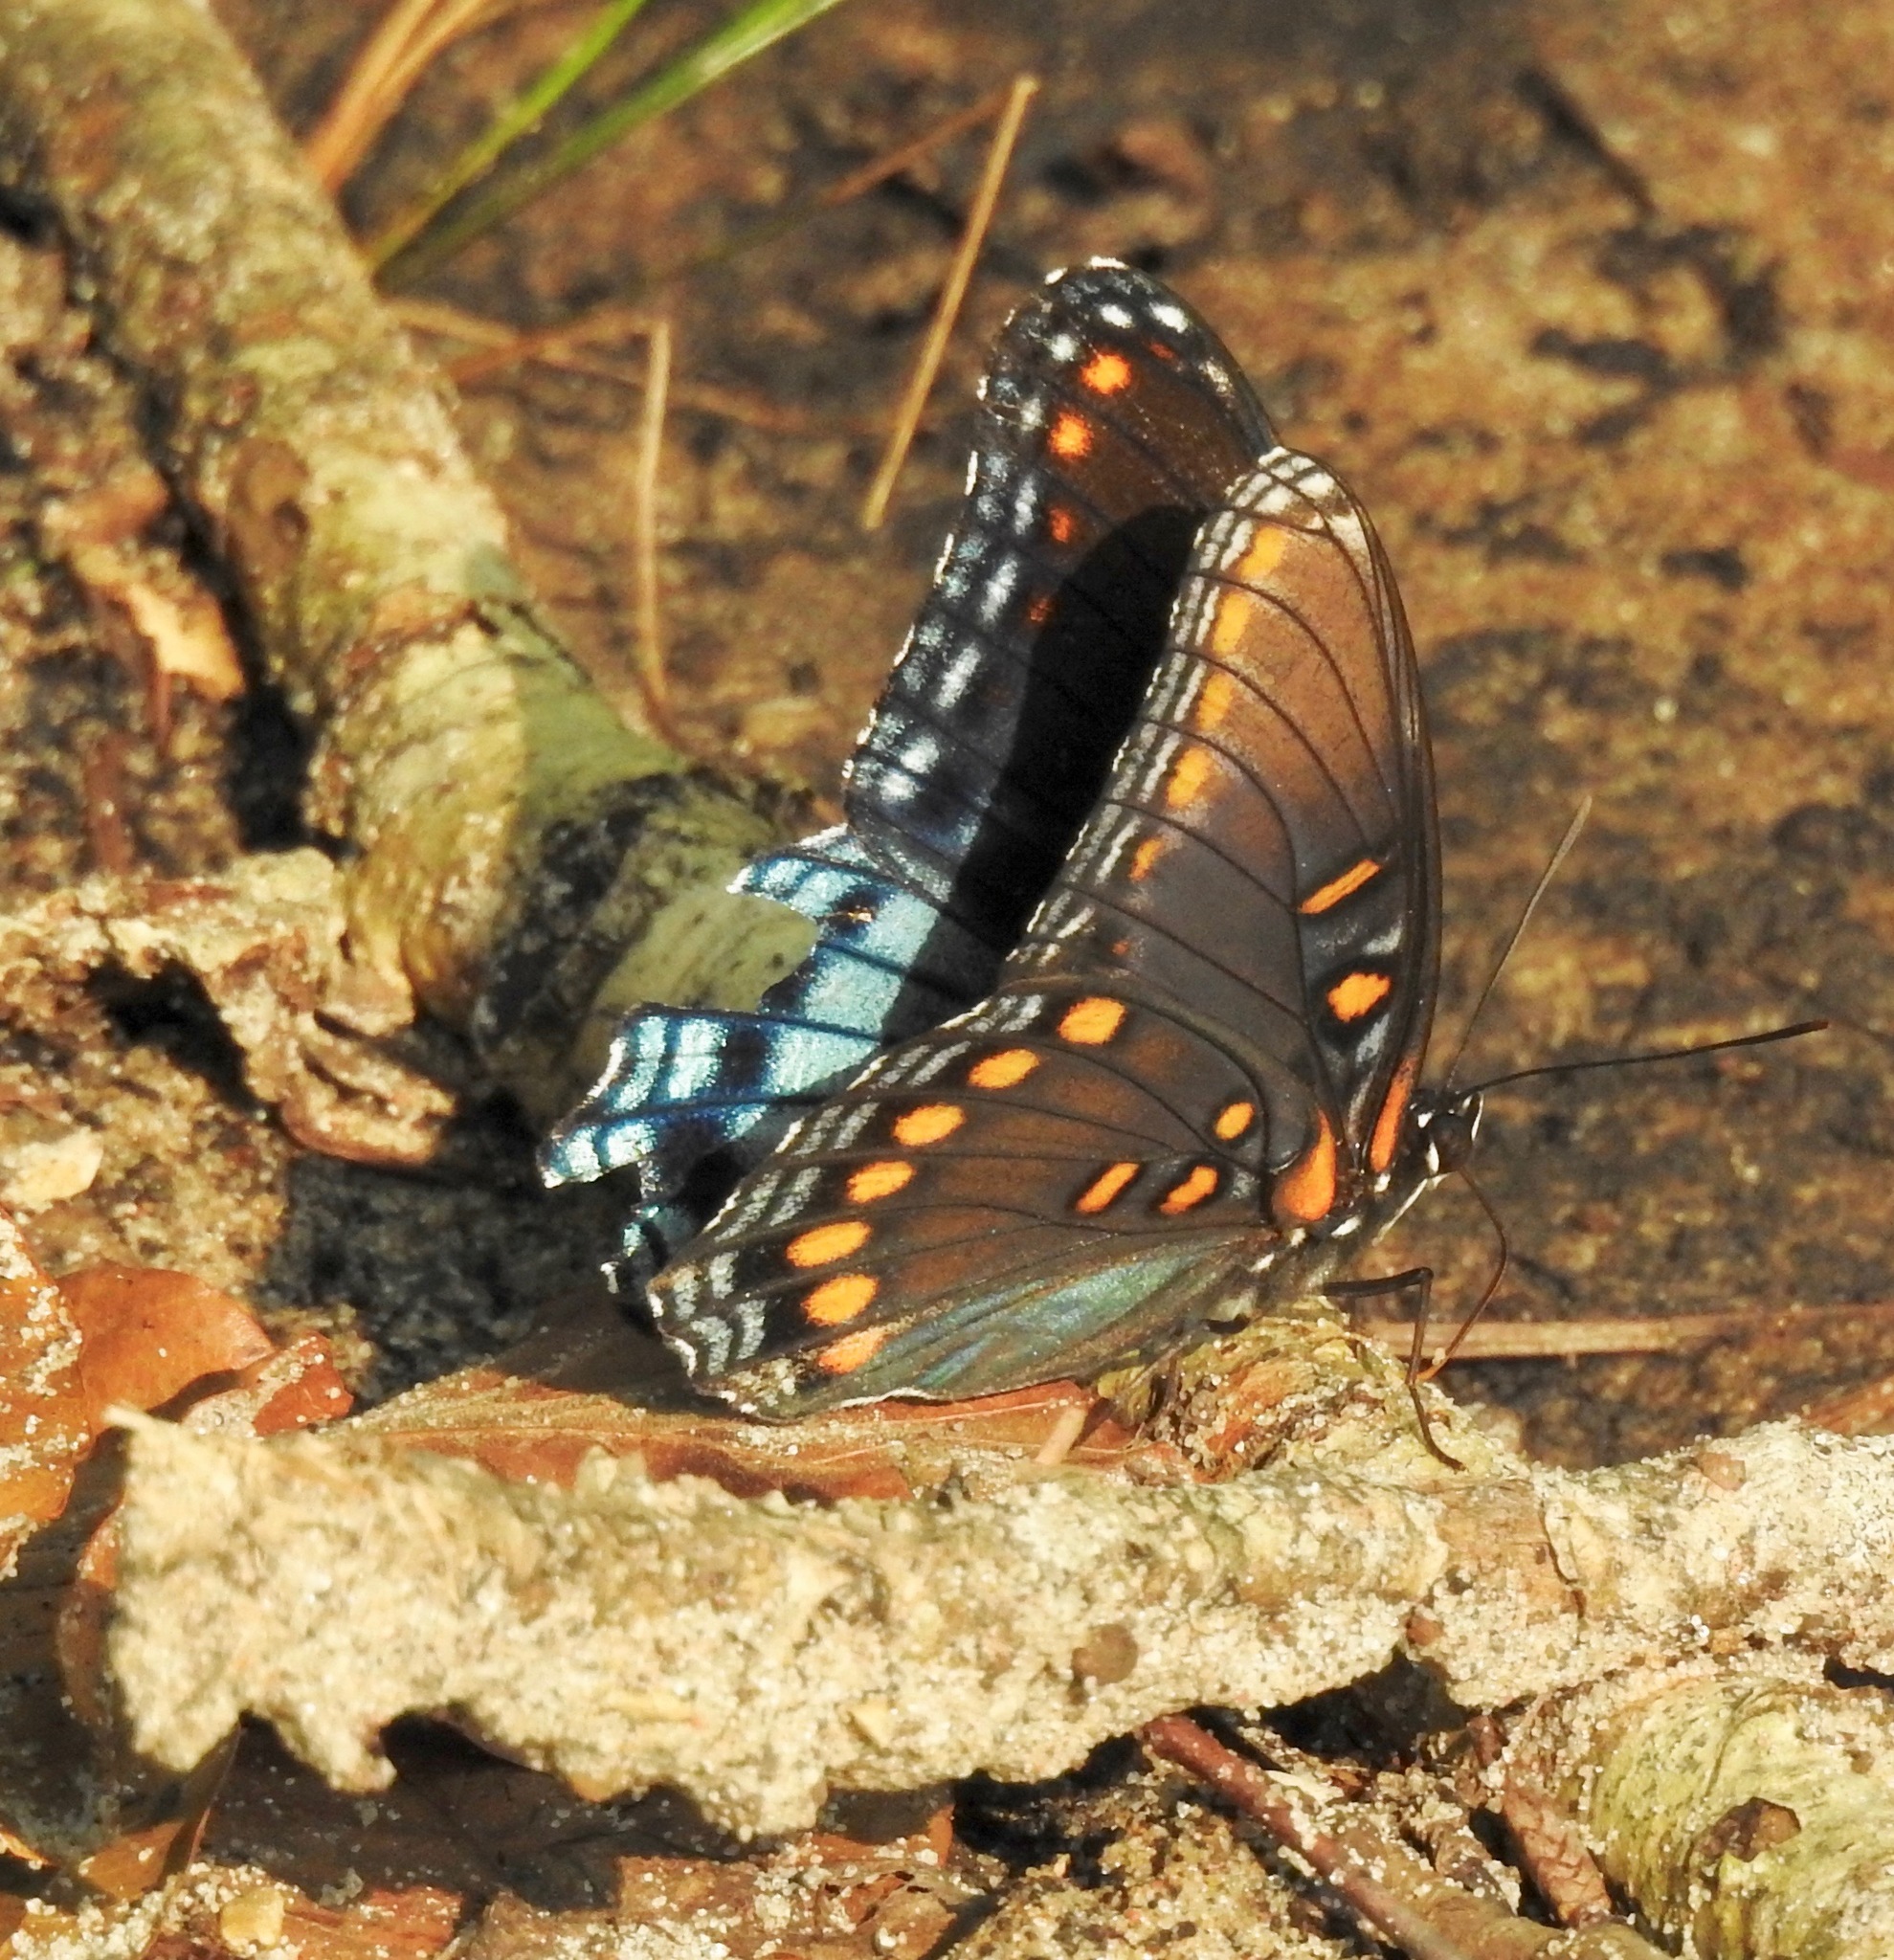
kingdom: Animalia
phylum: Arthropoda
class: Insecta
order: Lepidoptera
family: Nymphalidae
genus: Limenitis
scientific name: Limenitis astyanax
